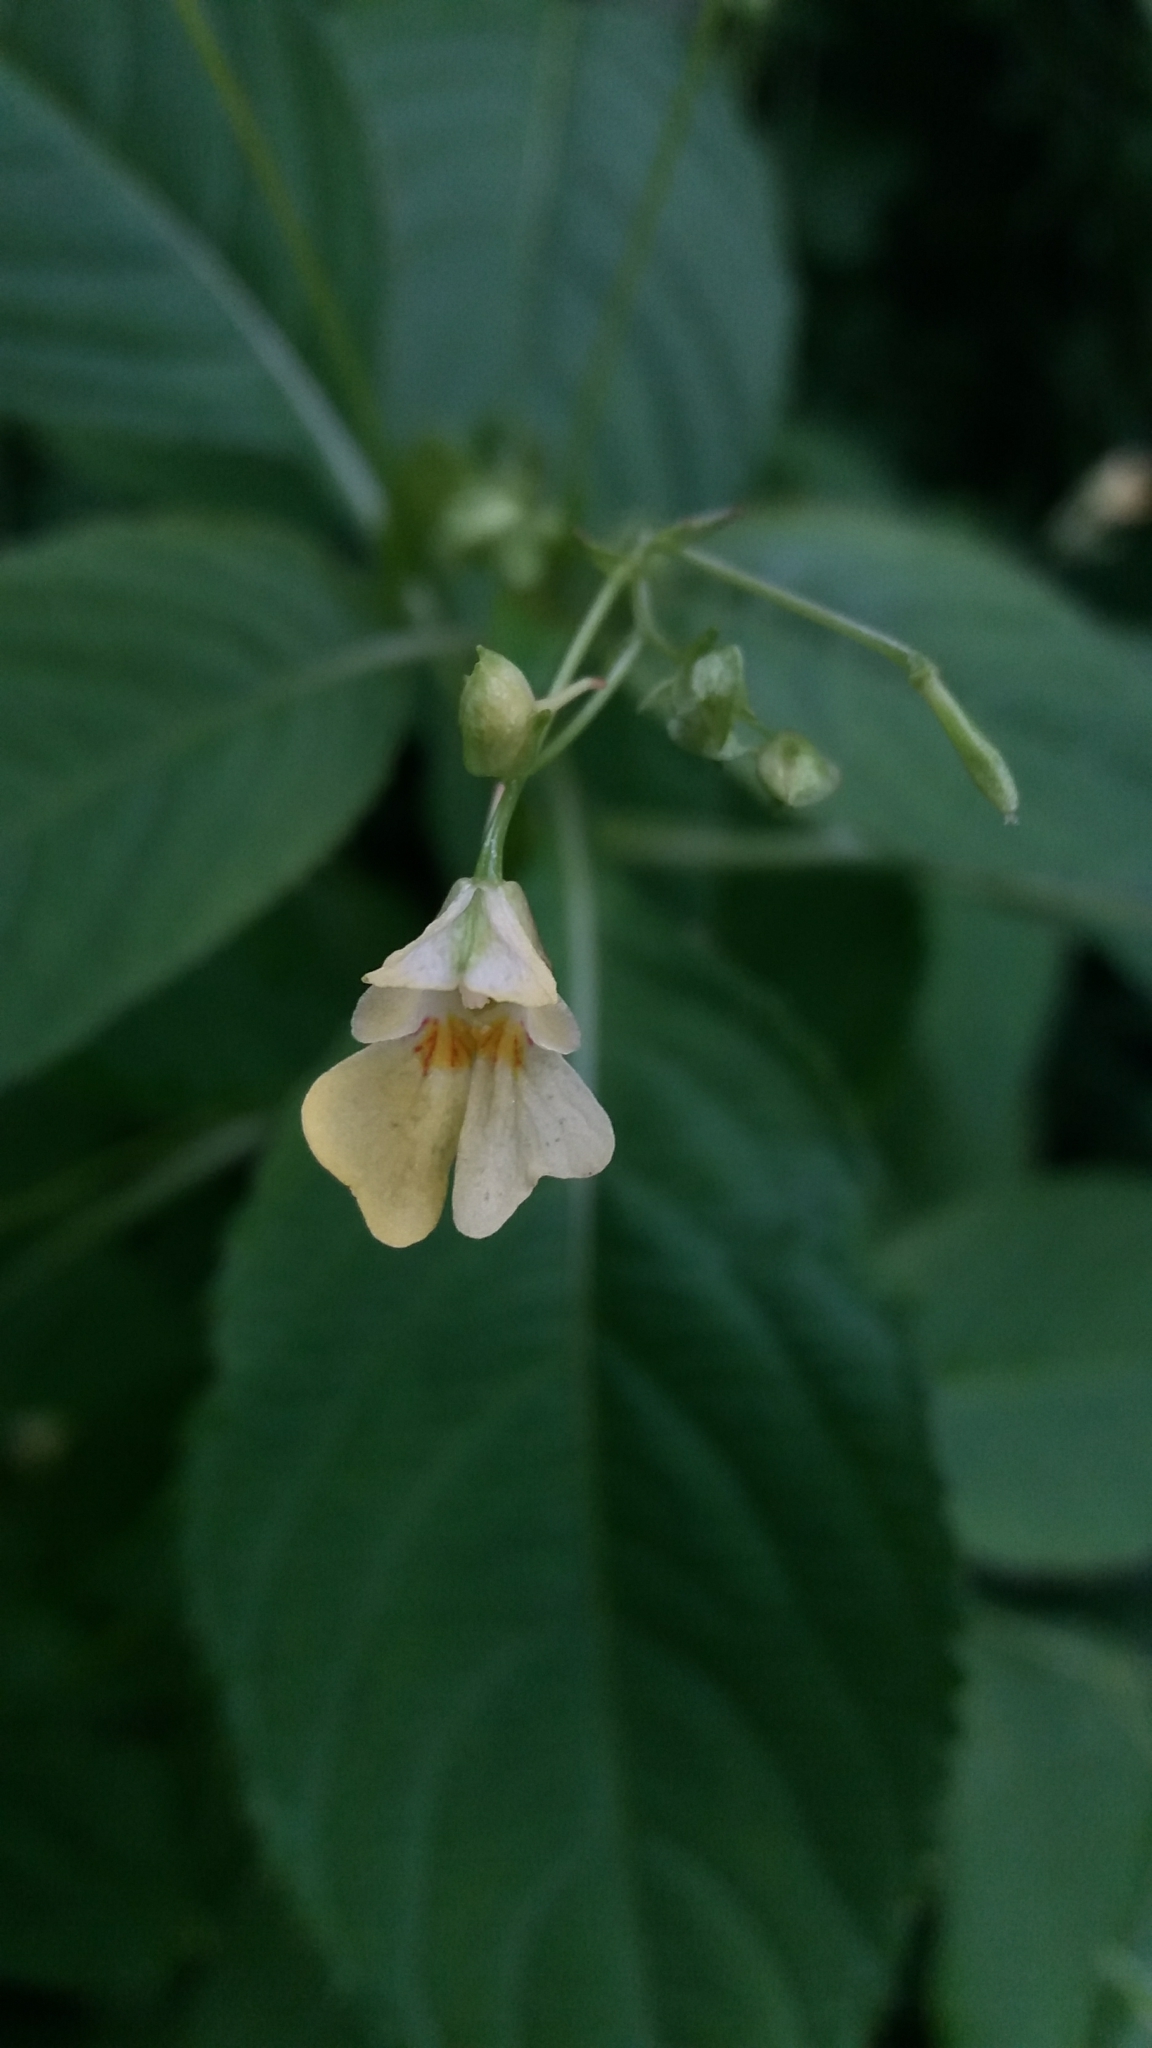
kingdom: Plantae
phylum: Tracheophyta
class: Magnoliopsida
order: Ericales
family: Balsaminaceae
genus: Impatiens
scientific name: Impatiens parviflora
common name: Small balsam
